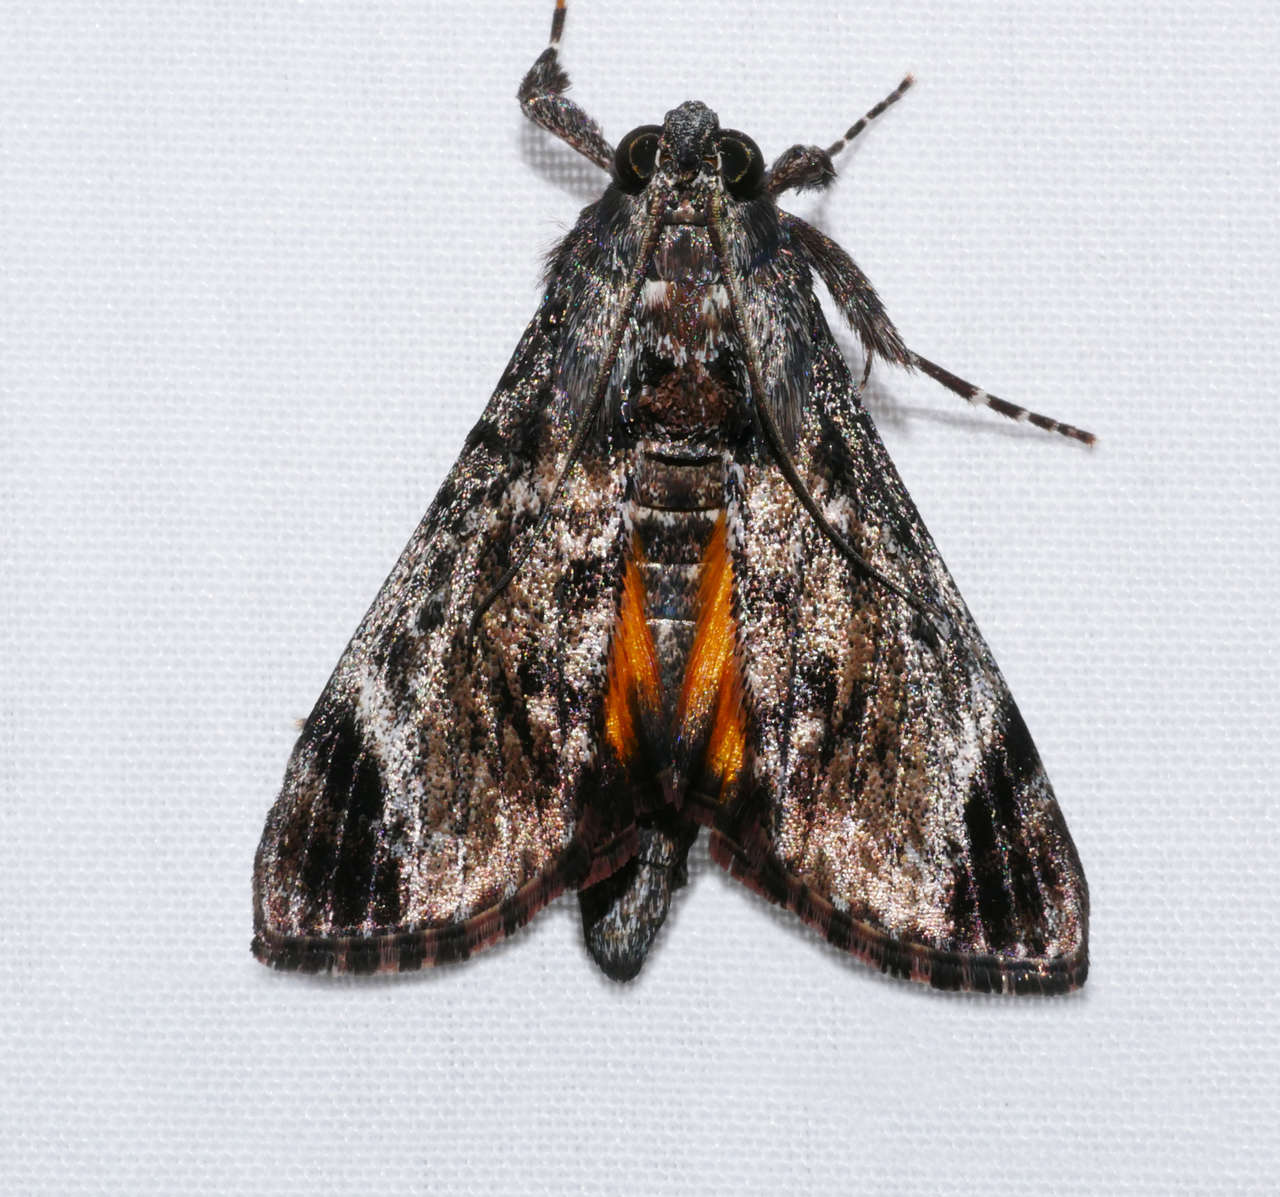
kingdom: Animalia
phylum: Arthropoda
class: Insecta
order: Lepidoptera
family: Pyralidae
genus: Salma
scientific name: Salma pyrastis
